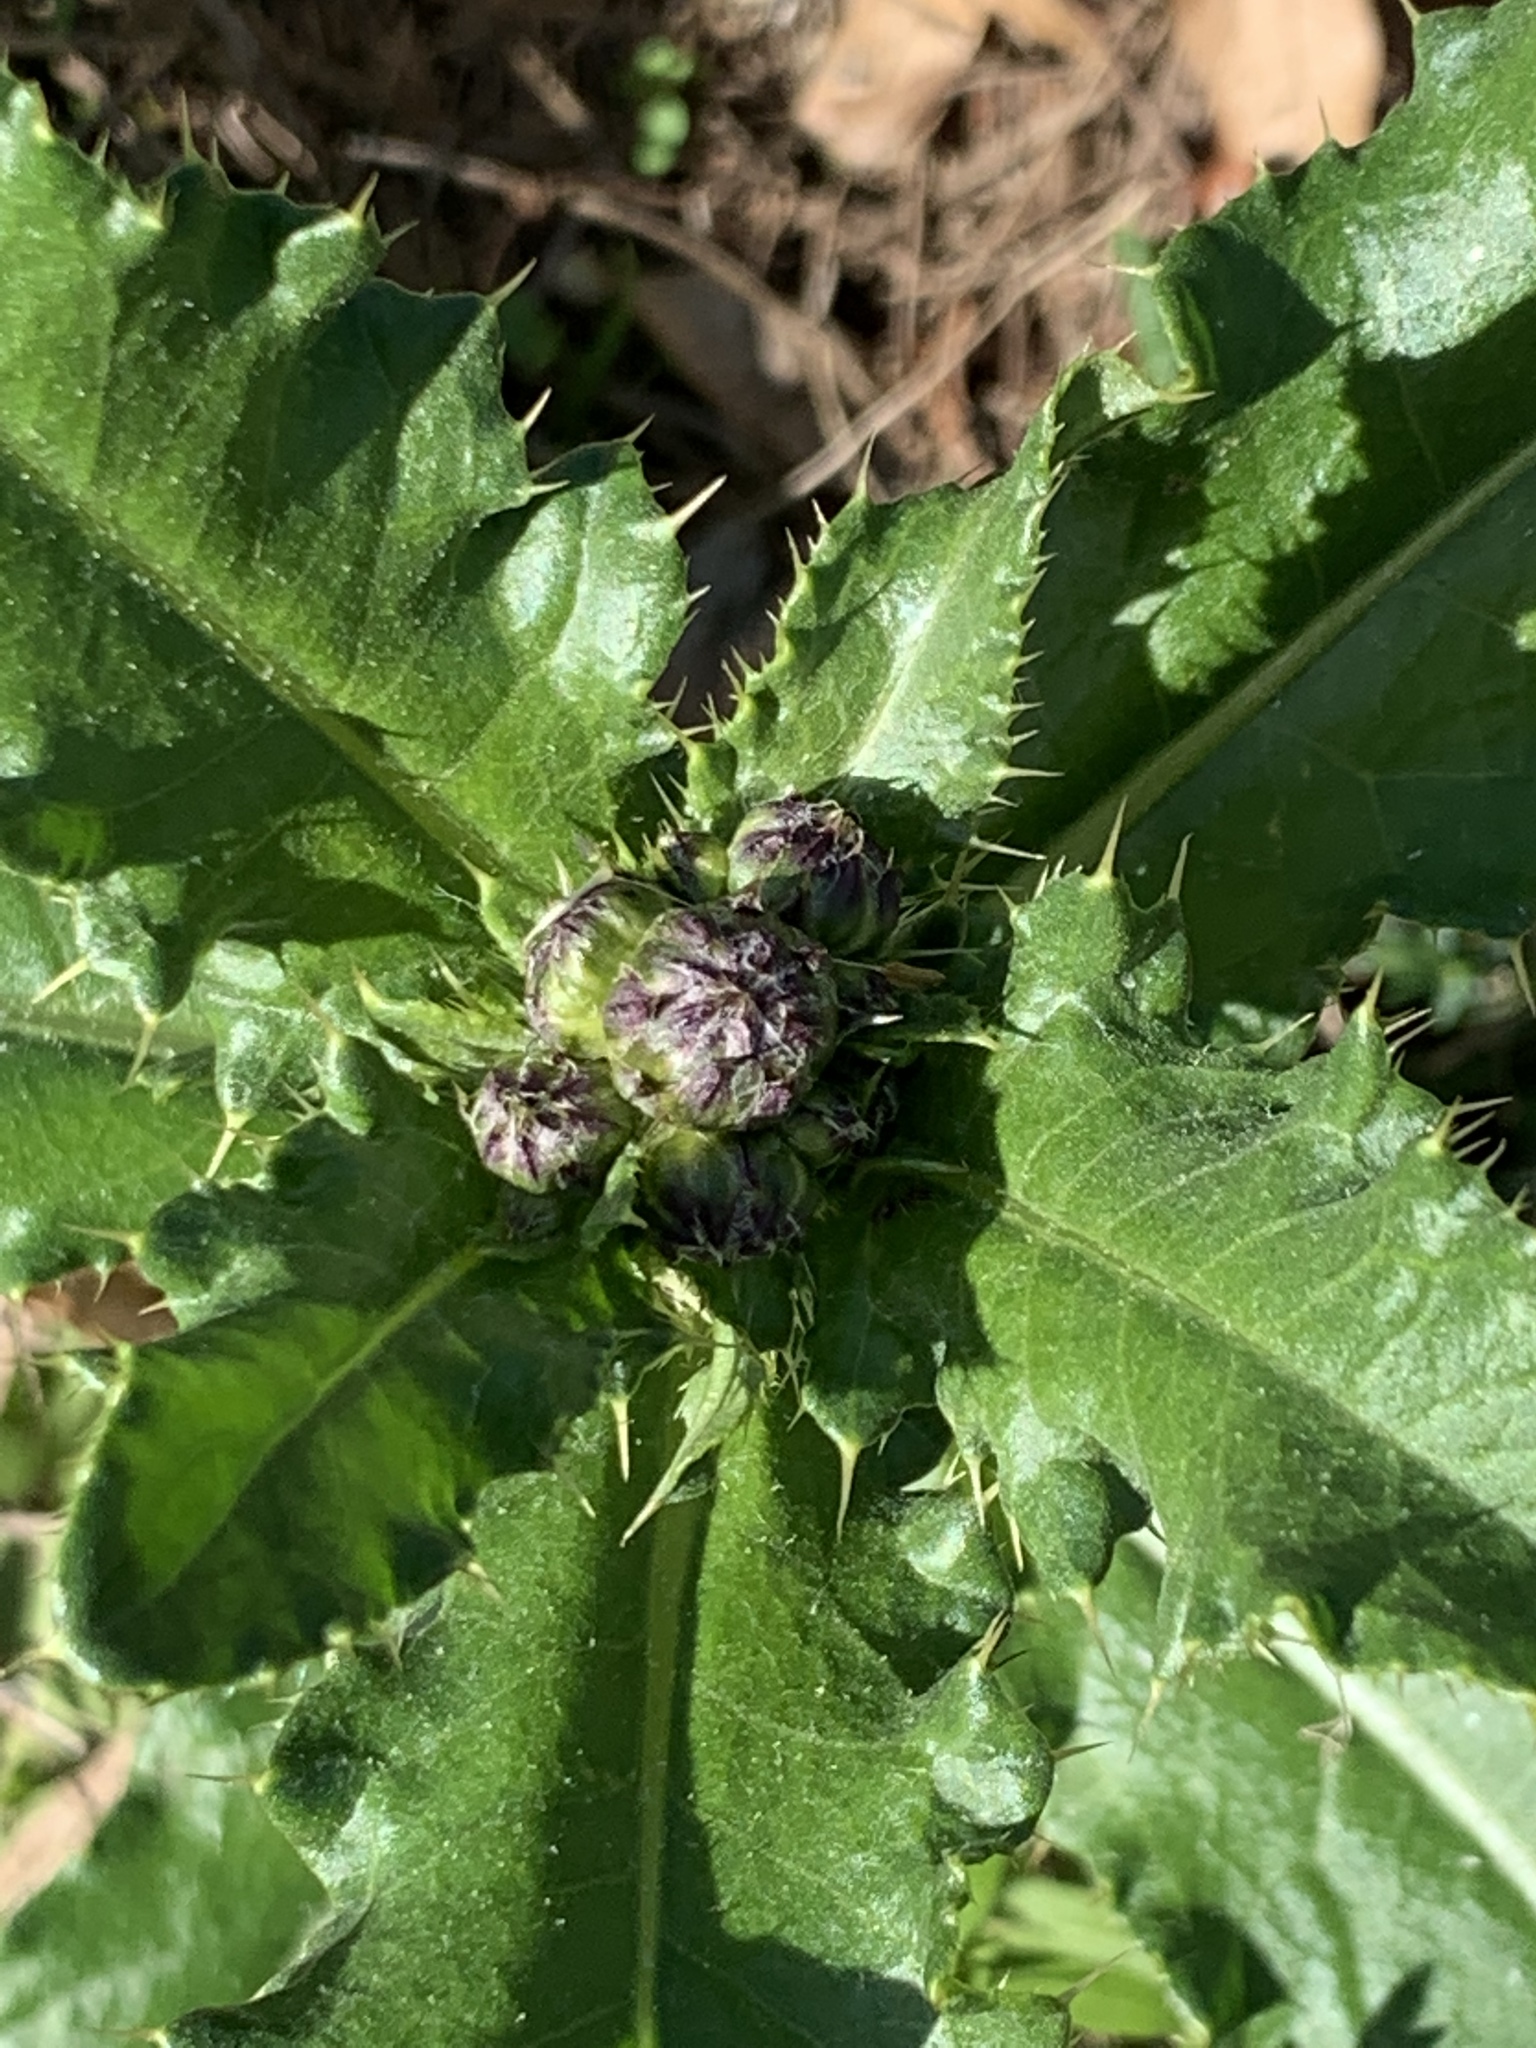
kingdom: Plantae
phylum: Tracheophyta
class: Magnoliopsida
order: Asterales
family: Asteraceae
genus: Cirsium
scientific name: Cirsium arvense
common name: Creeping thistle
